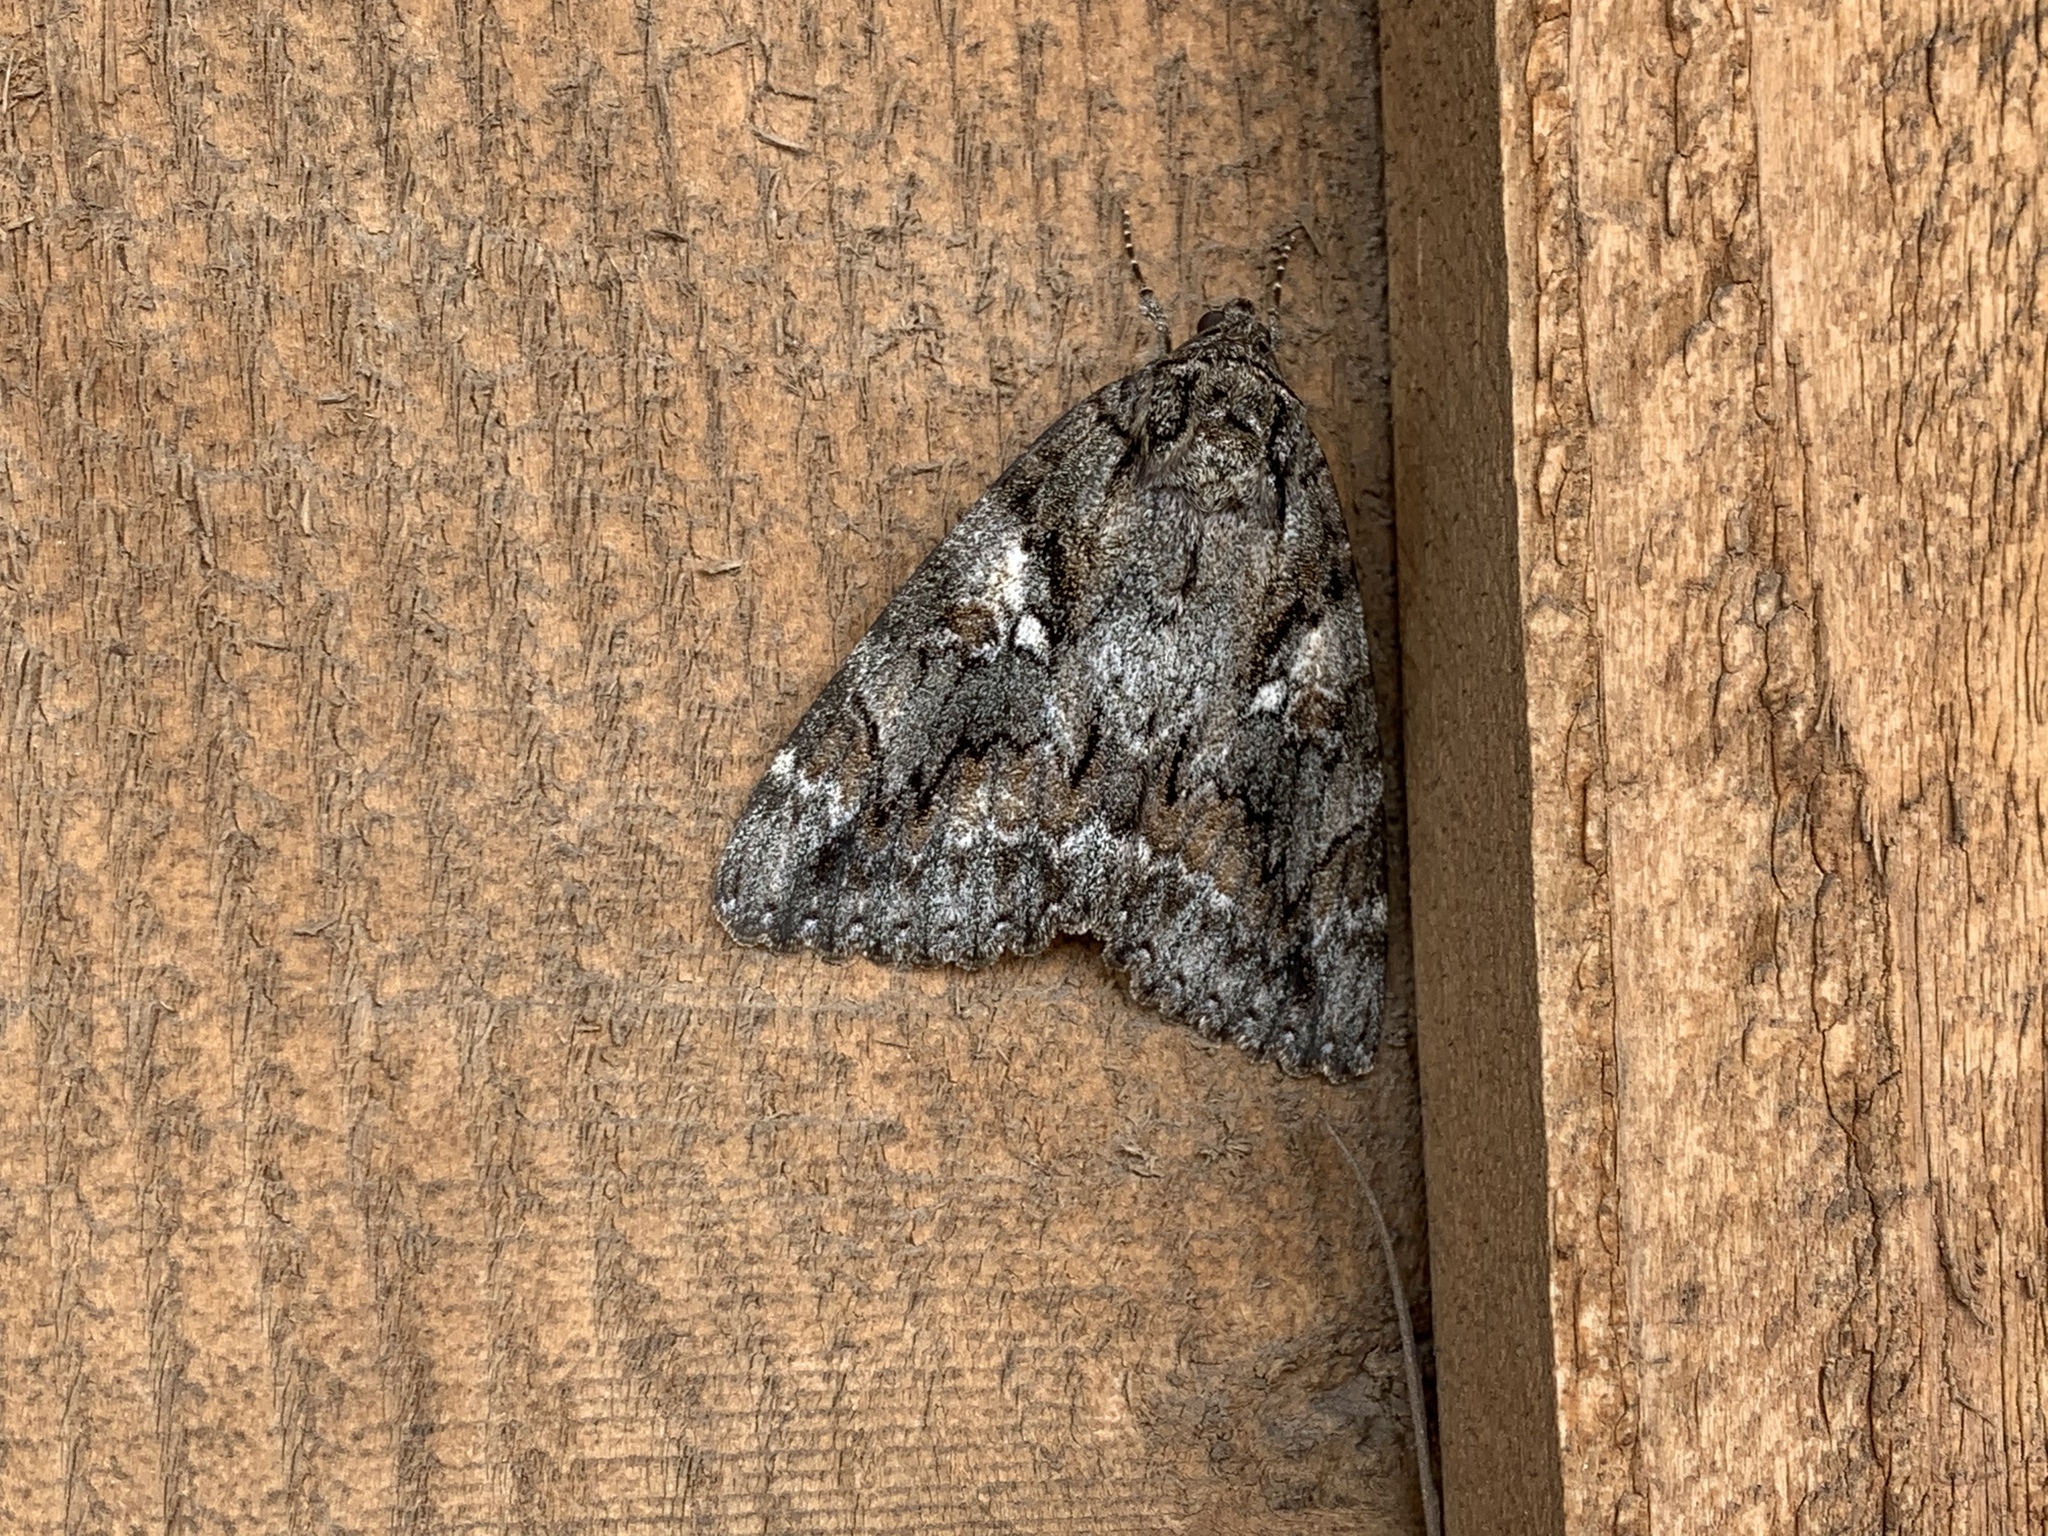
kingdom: Animalia
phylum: Arthropoda
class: Insecta
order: Lepidoptera
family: Erebidae
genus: Catocala
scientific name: Catocala aholibah
